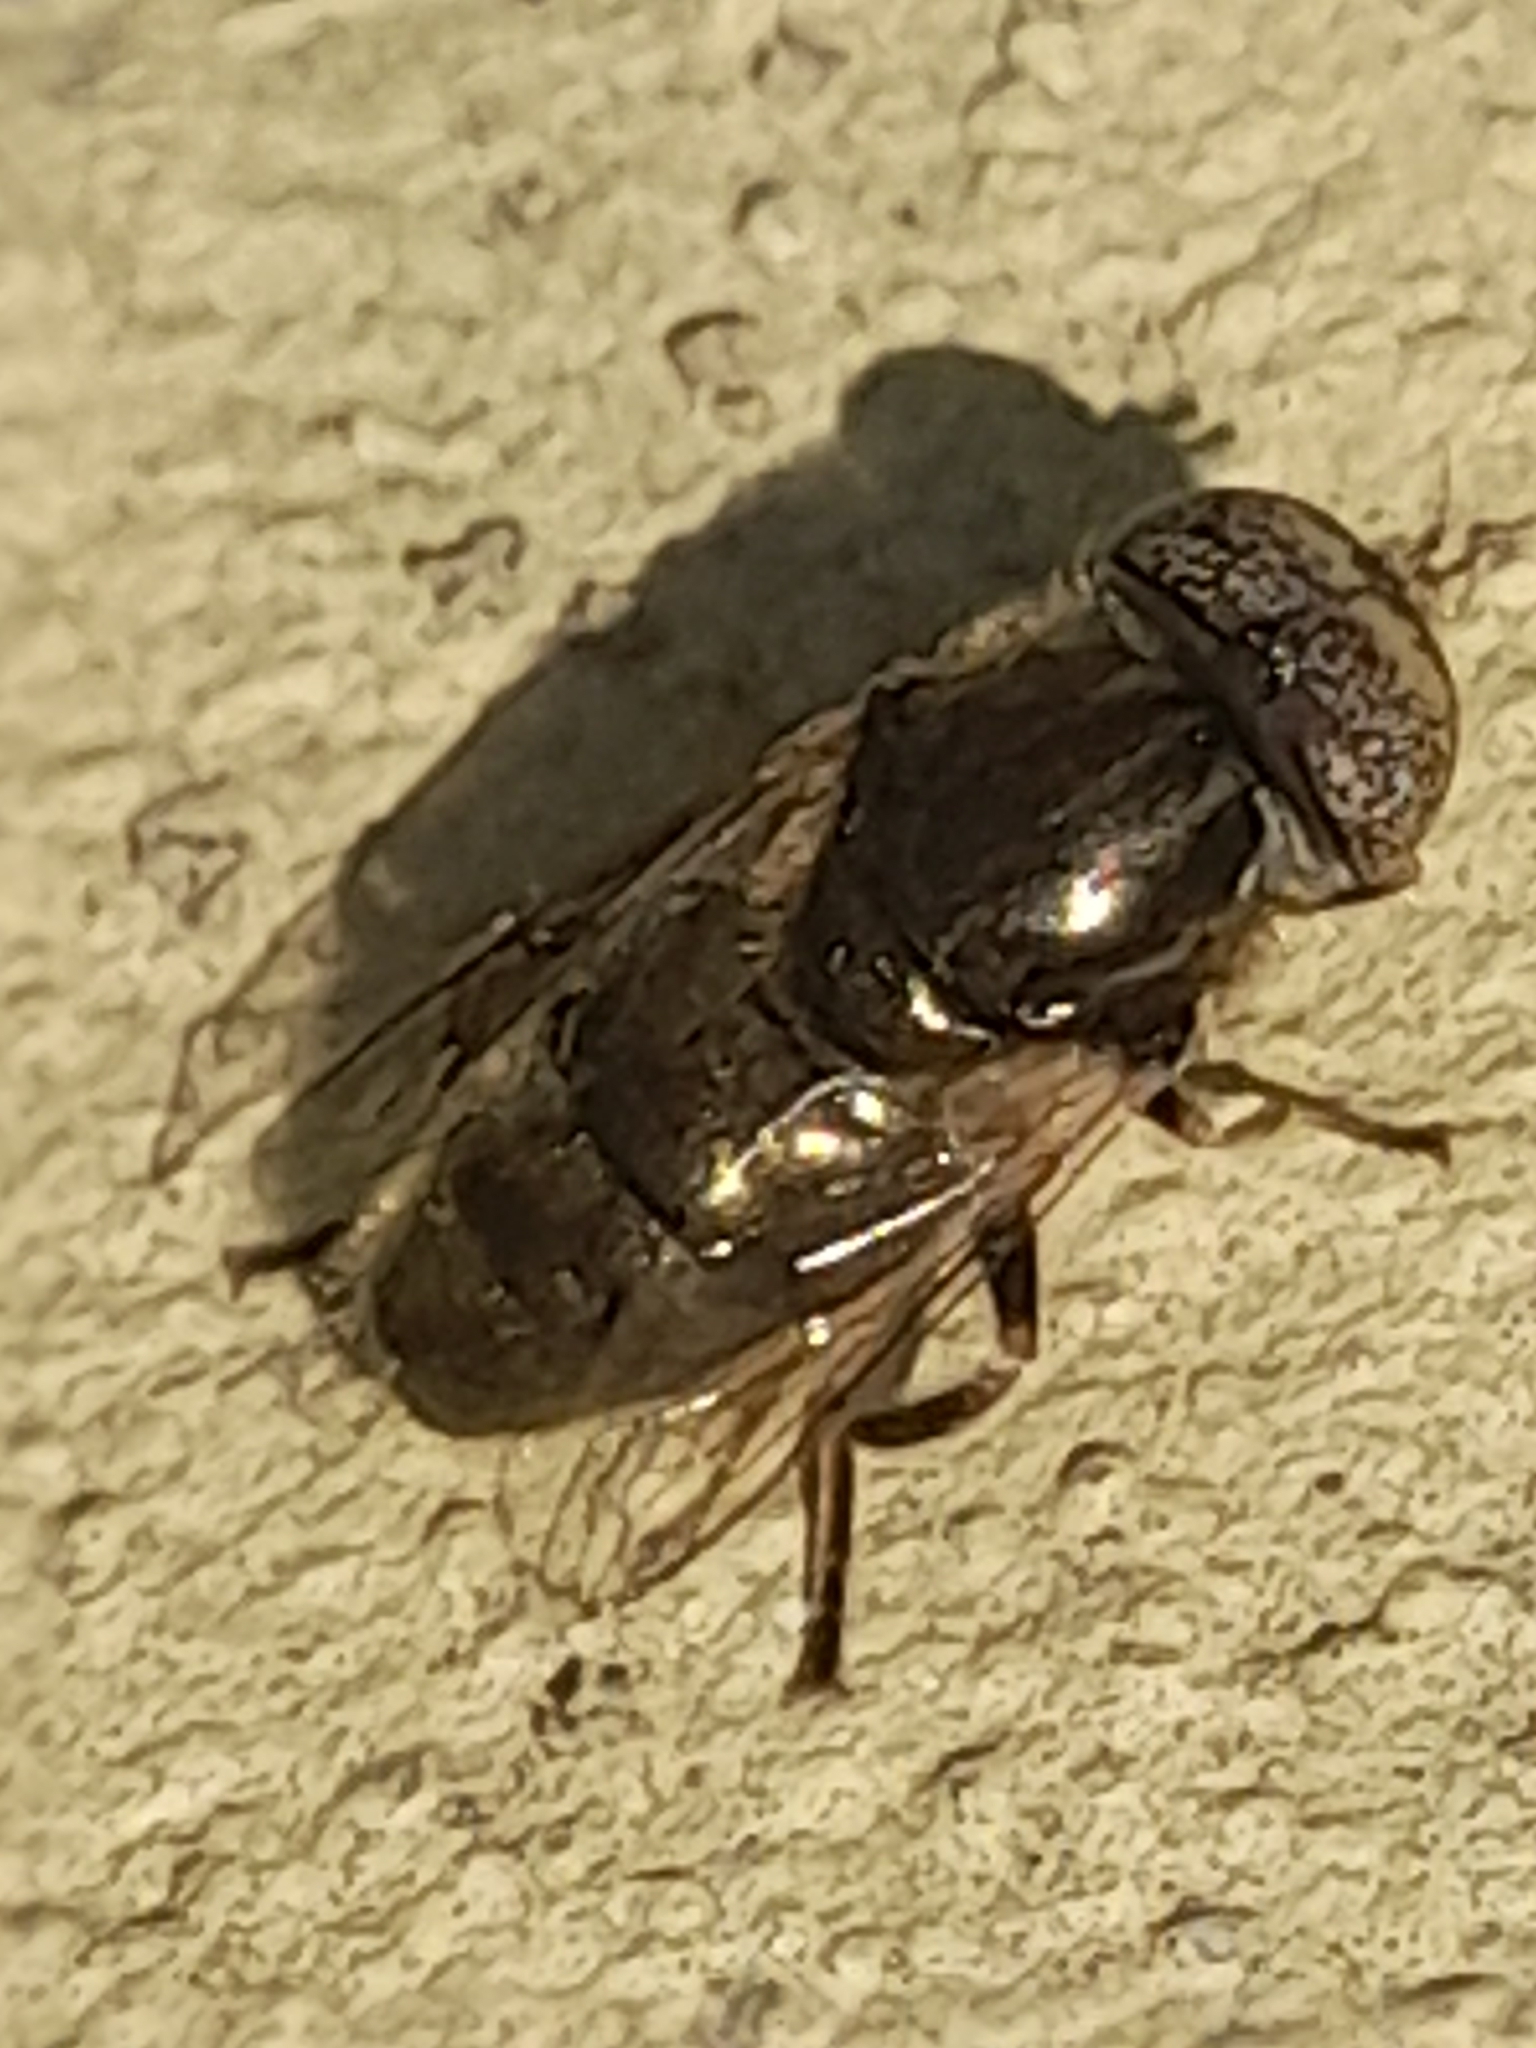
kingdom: Animalia
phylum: Arthropoda
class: Insecta
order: Diptera
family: Syrphidae
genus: Eristalinus
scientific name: Eristalinus aeneus
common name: Syrphid fly
